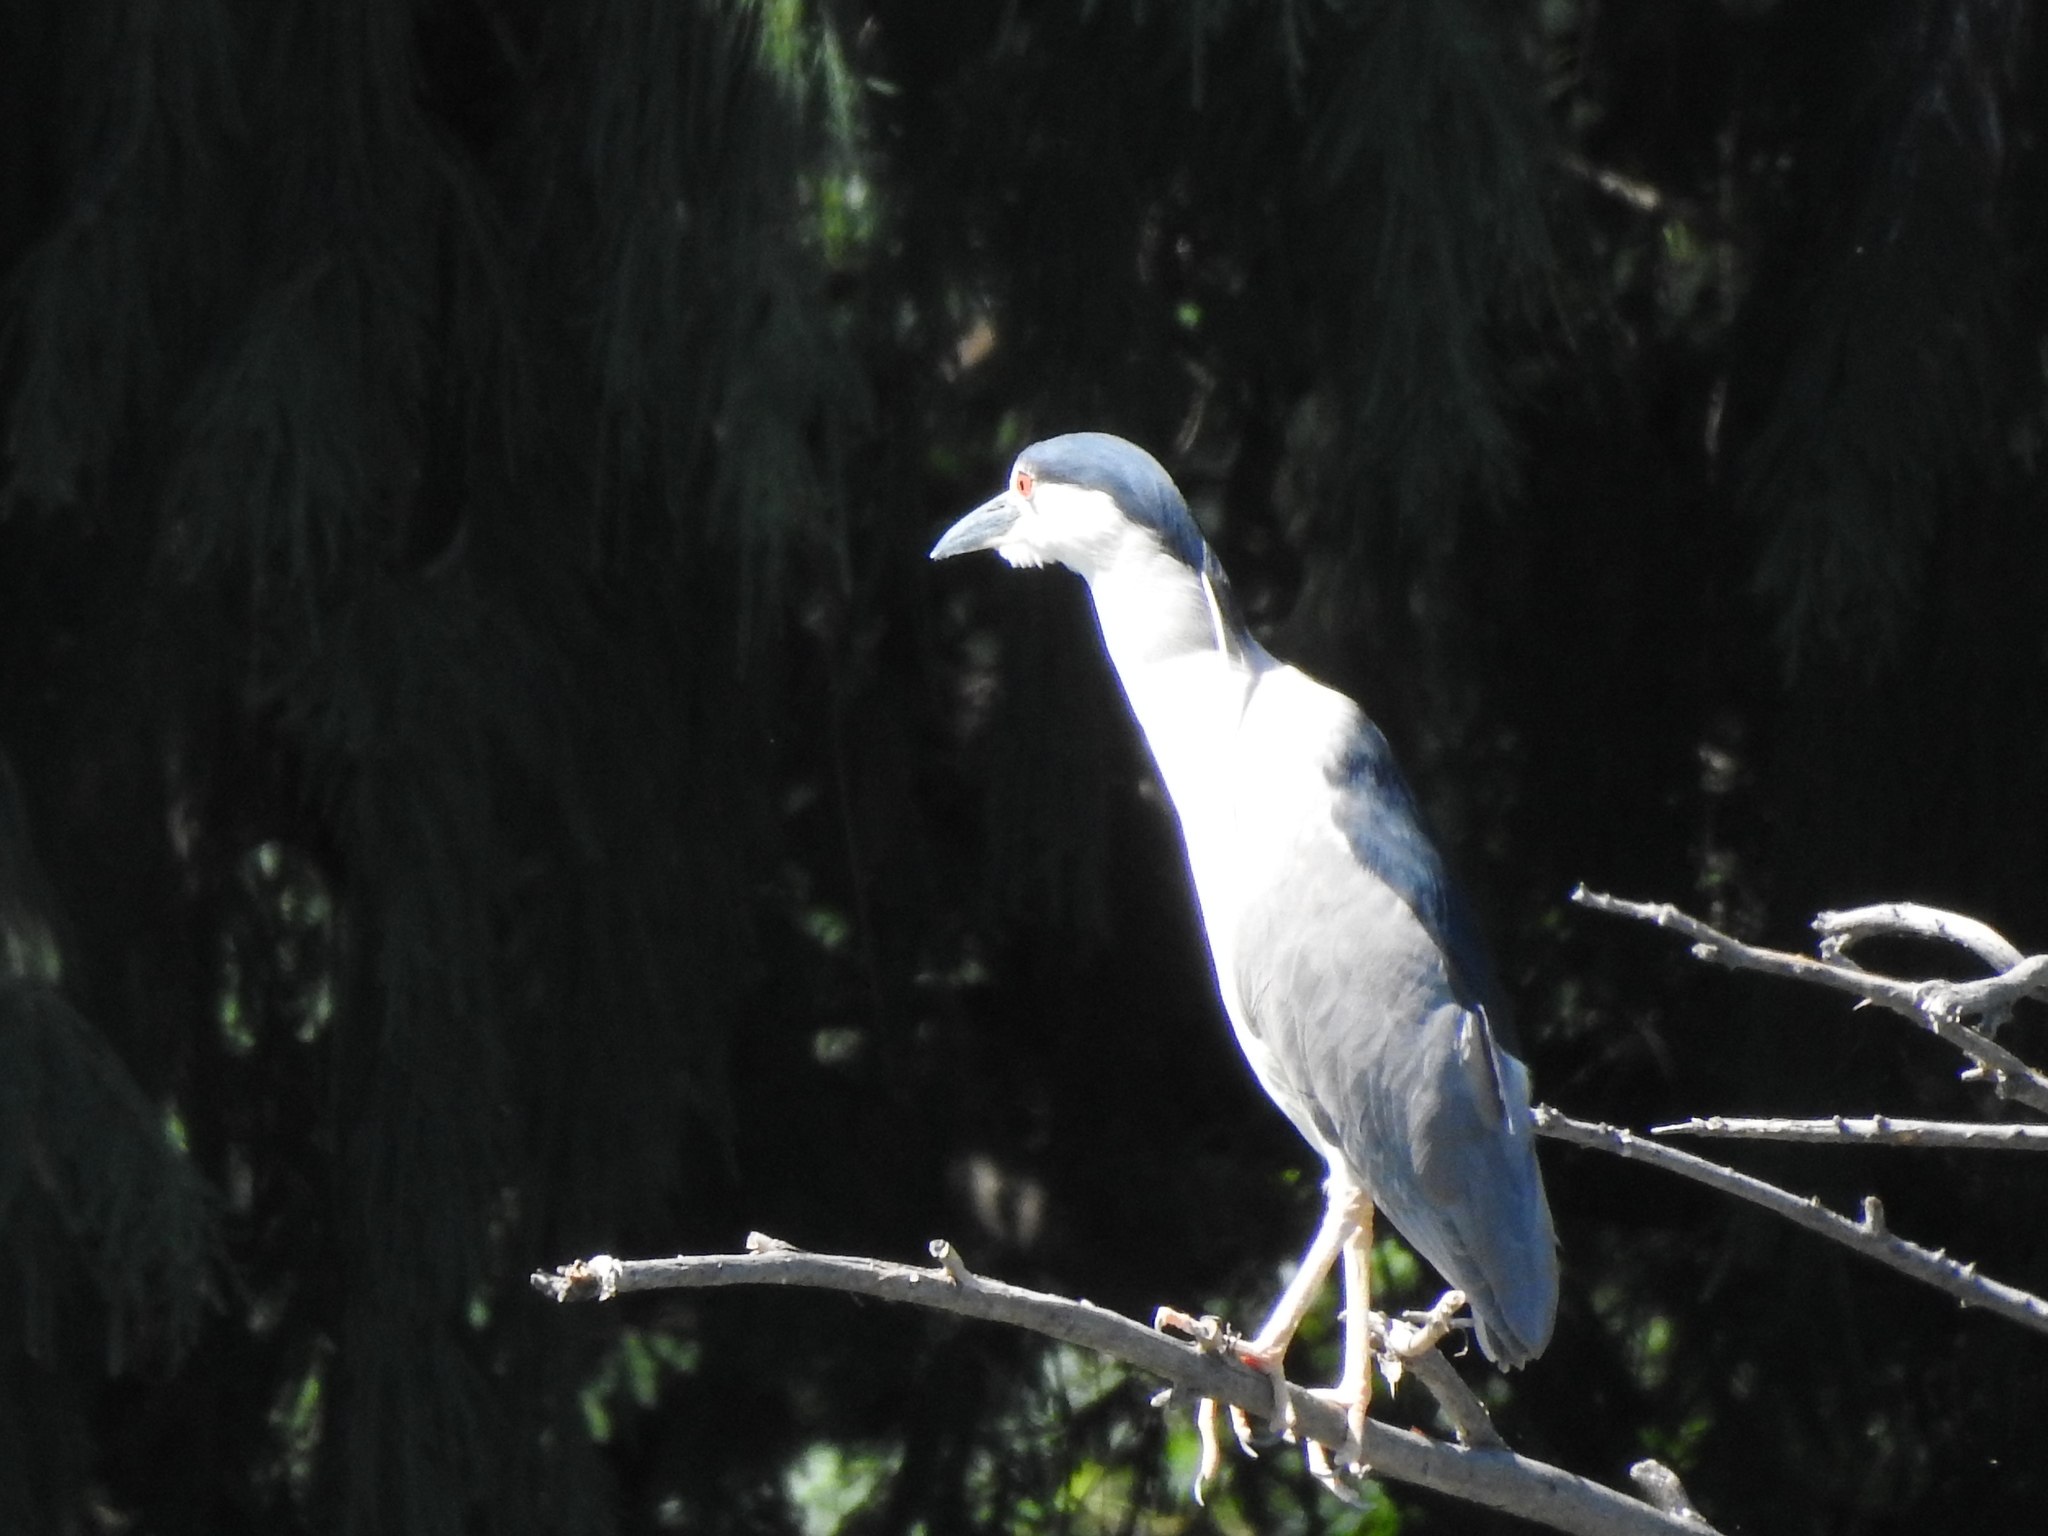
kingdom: Animalia
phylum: Chordata
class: Aves
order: Pelecaniformes
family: Ardeidae
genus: Nycticorax
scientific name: Nycticorax nycticorax
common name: Black-crowned night heron
